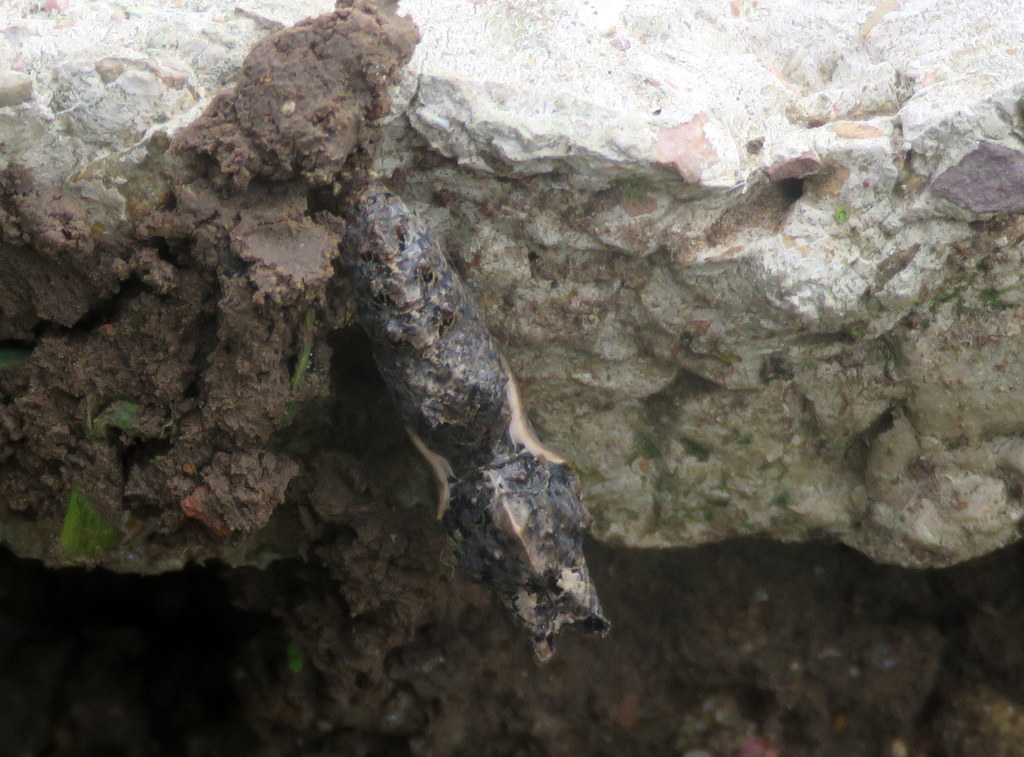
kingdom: Animalia
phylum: Arthropoda
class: Insecta
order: Lepidoptera
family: Nymphalidae
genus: Dione
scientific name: Dione vanillae
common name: Gulf fritillary
